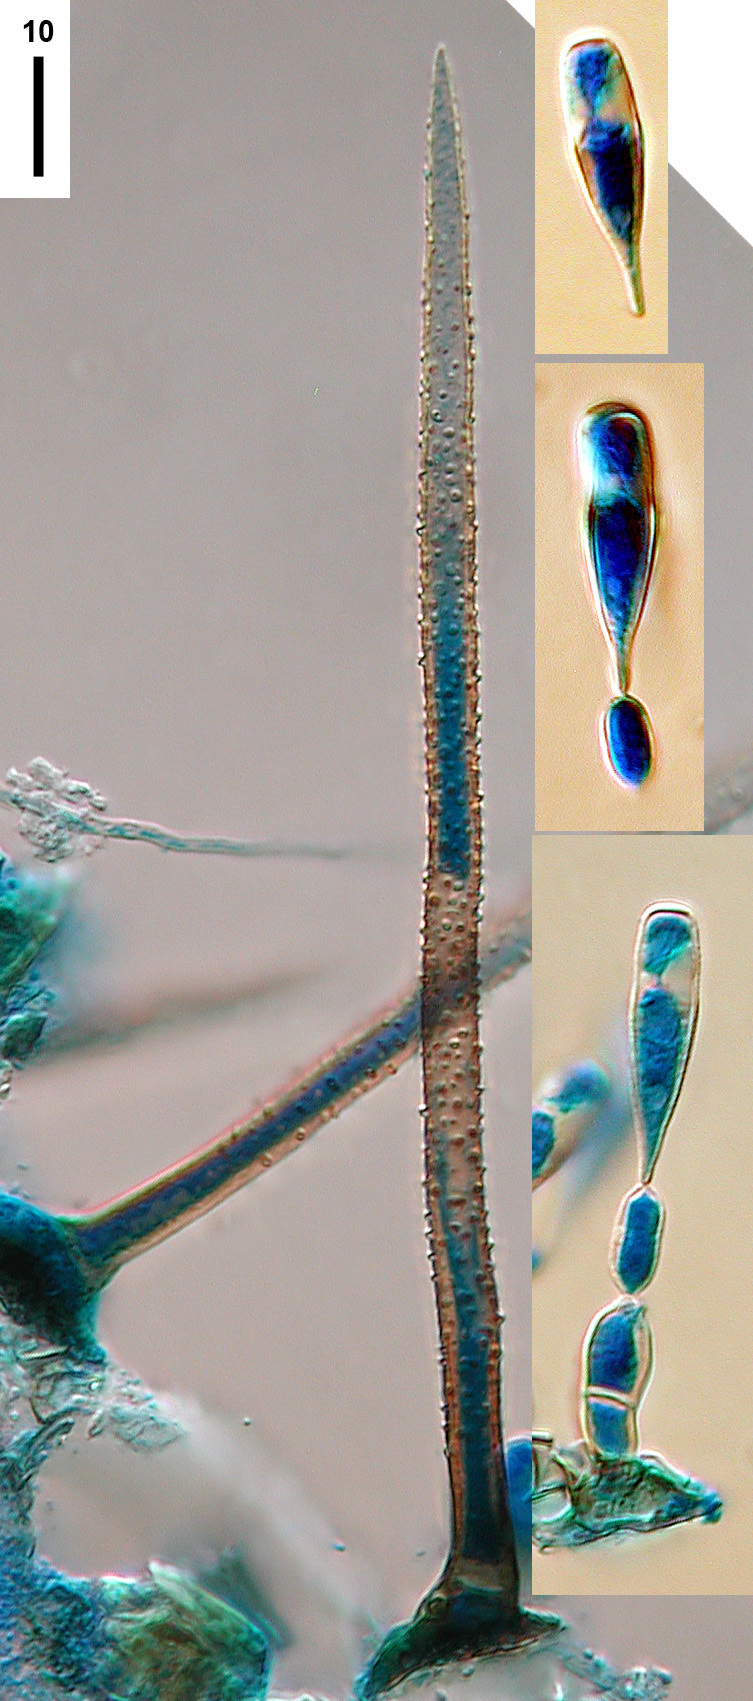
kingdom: Fungi
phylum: Ascomycota
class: Sordariomycetes
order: Amphisphaeriales
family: Amphisphaeriaceae
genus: Beltraniella
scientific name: Beltraniella portoricensis
